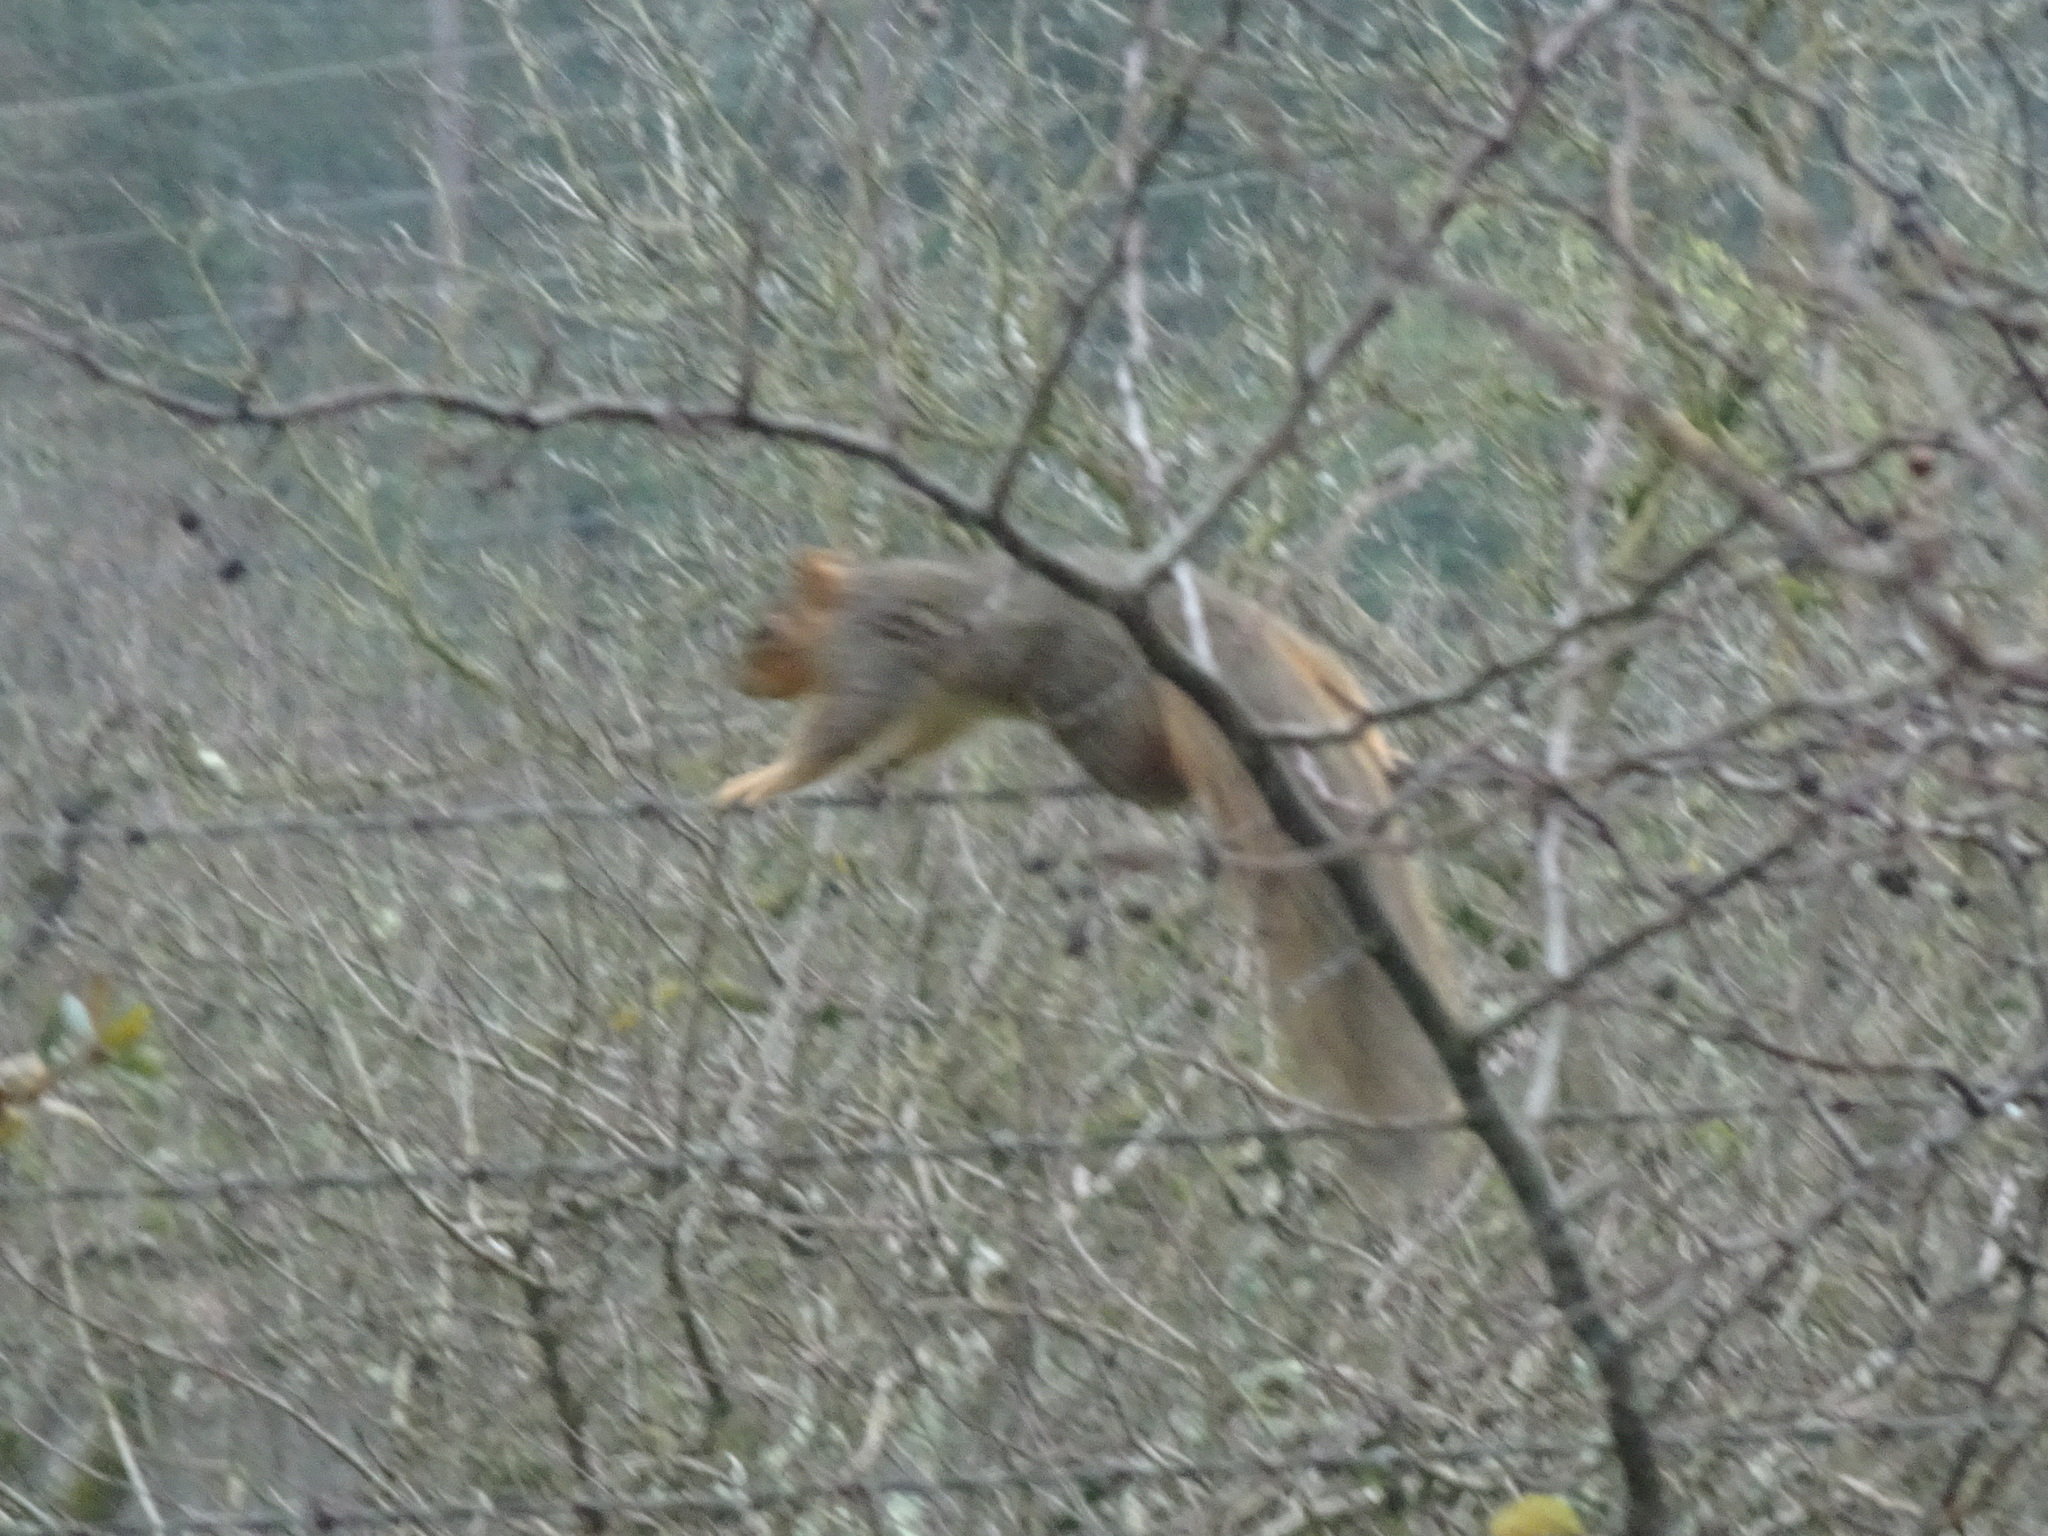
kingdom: Animalia
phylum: Chordata
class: Mammalia
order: Rodentia
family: Sciuridae
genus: Sciurus
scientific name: Sciurus niger
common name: Fox squirrel
